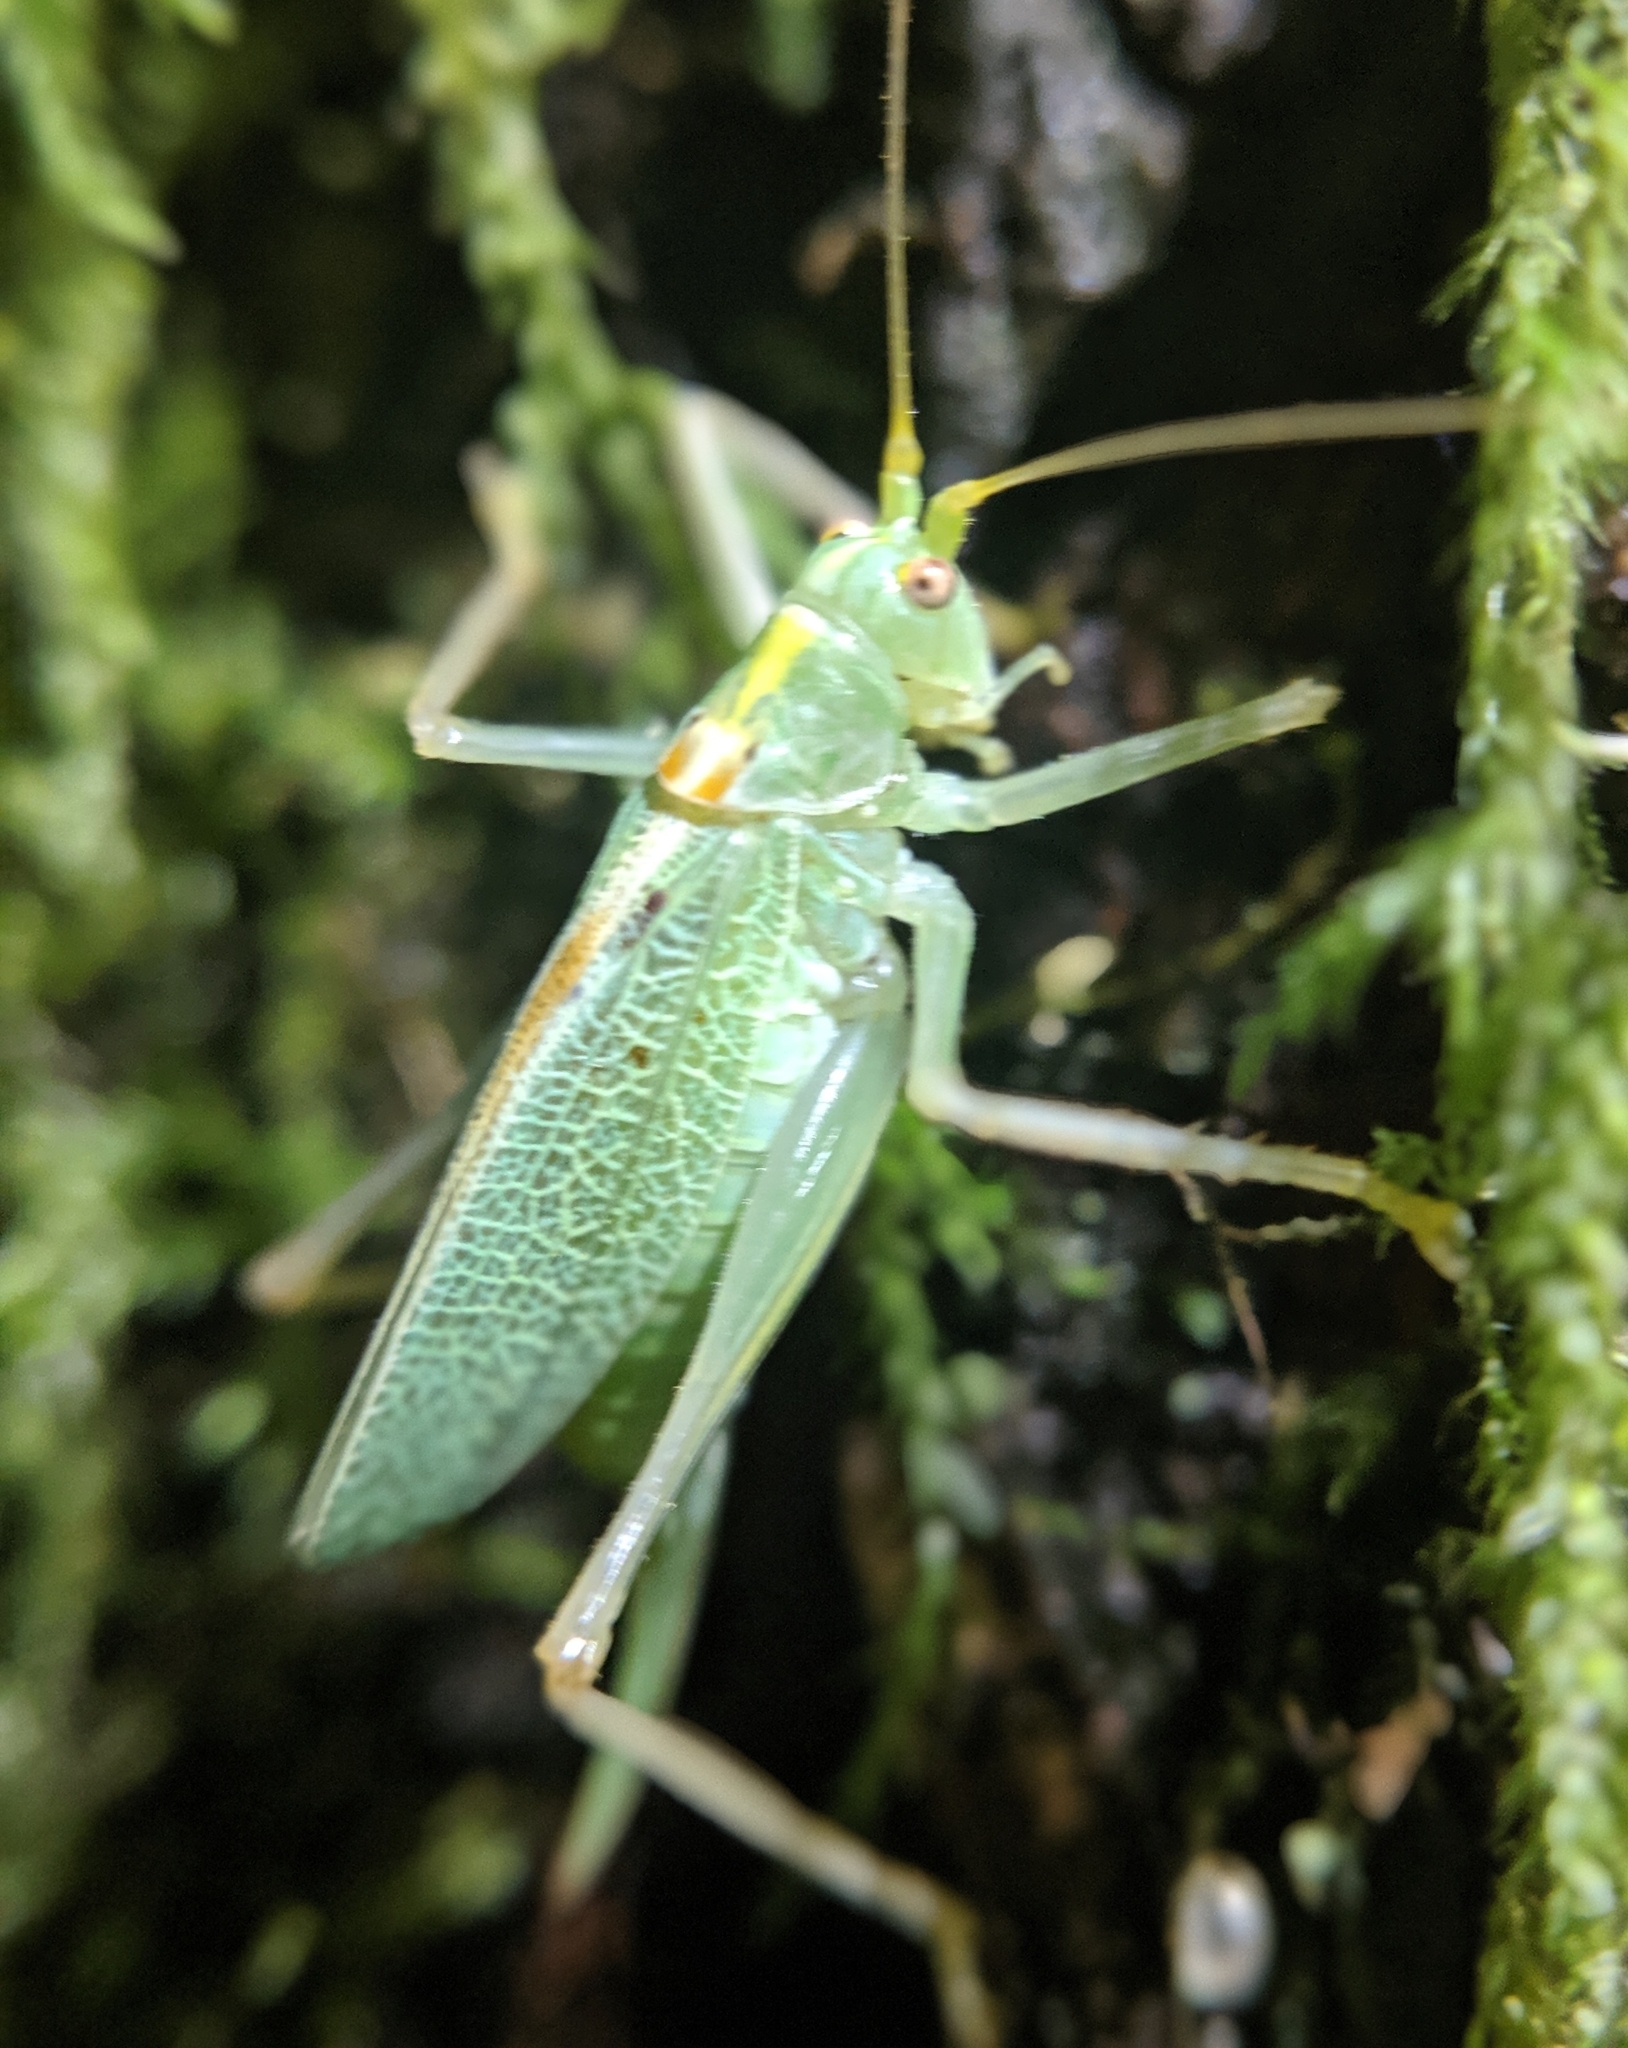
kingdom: Animalia
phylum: Arthropoda
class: Insecta
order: Orthoptera
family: Tettigoniidae
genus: Meconema
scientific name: Meconema thalassinum
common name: Oak bush-cricket
